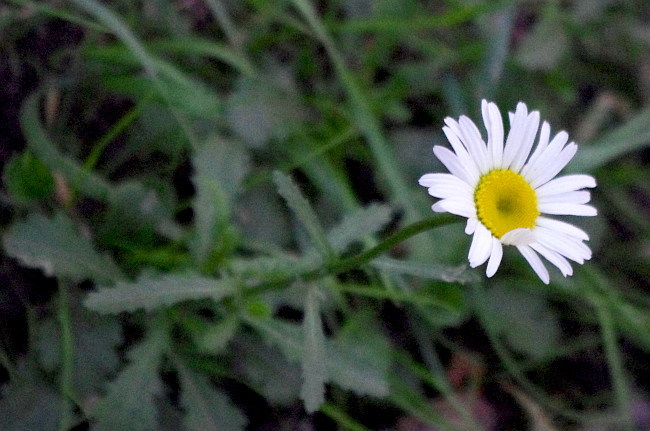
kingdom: Plantae
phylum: Tracheophyta
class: Magnoliopsida
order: Asterales
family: Asteraceae
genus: Leucanthemum
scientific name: Leucanthemum vulgare
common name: Oxeye daisy
